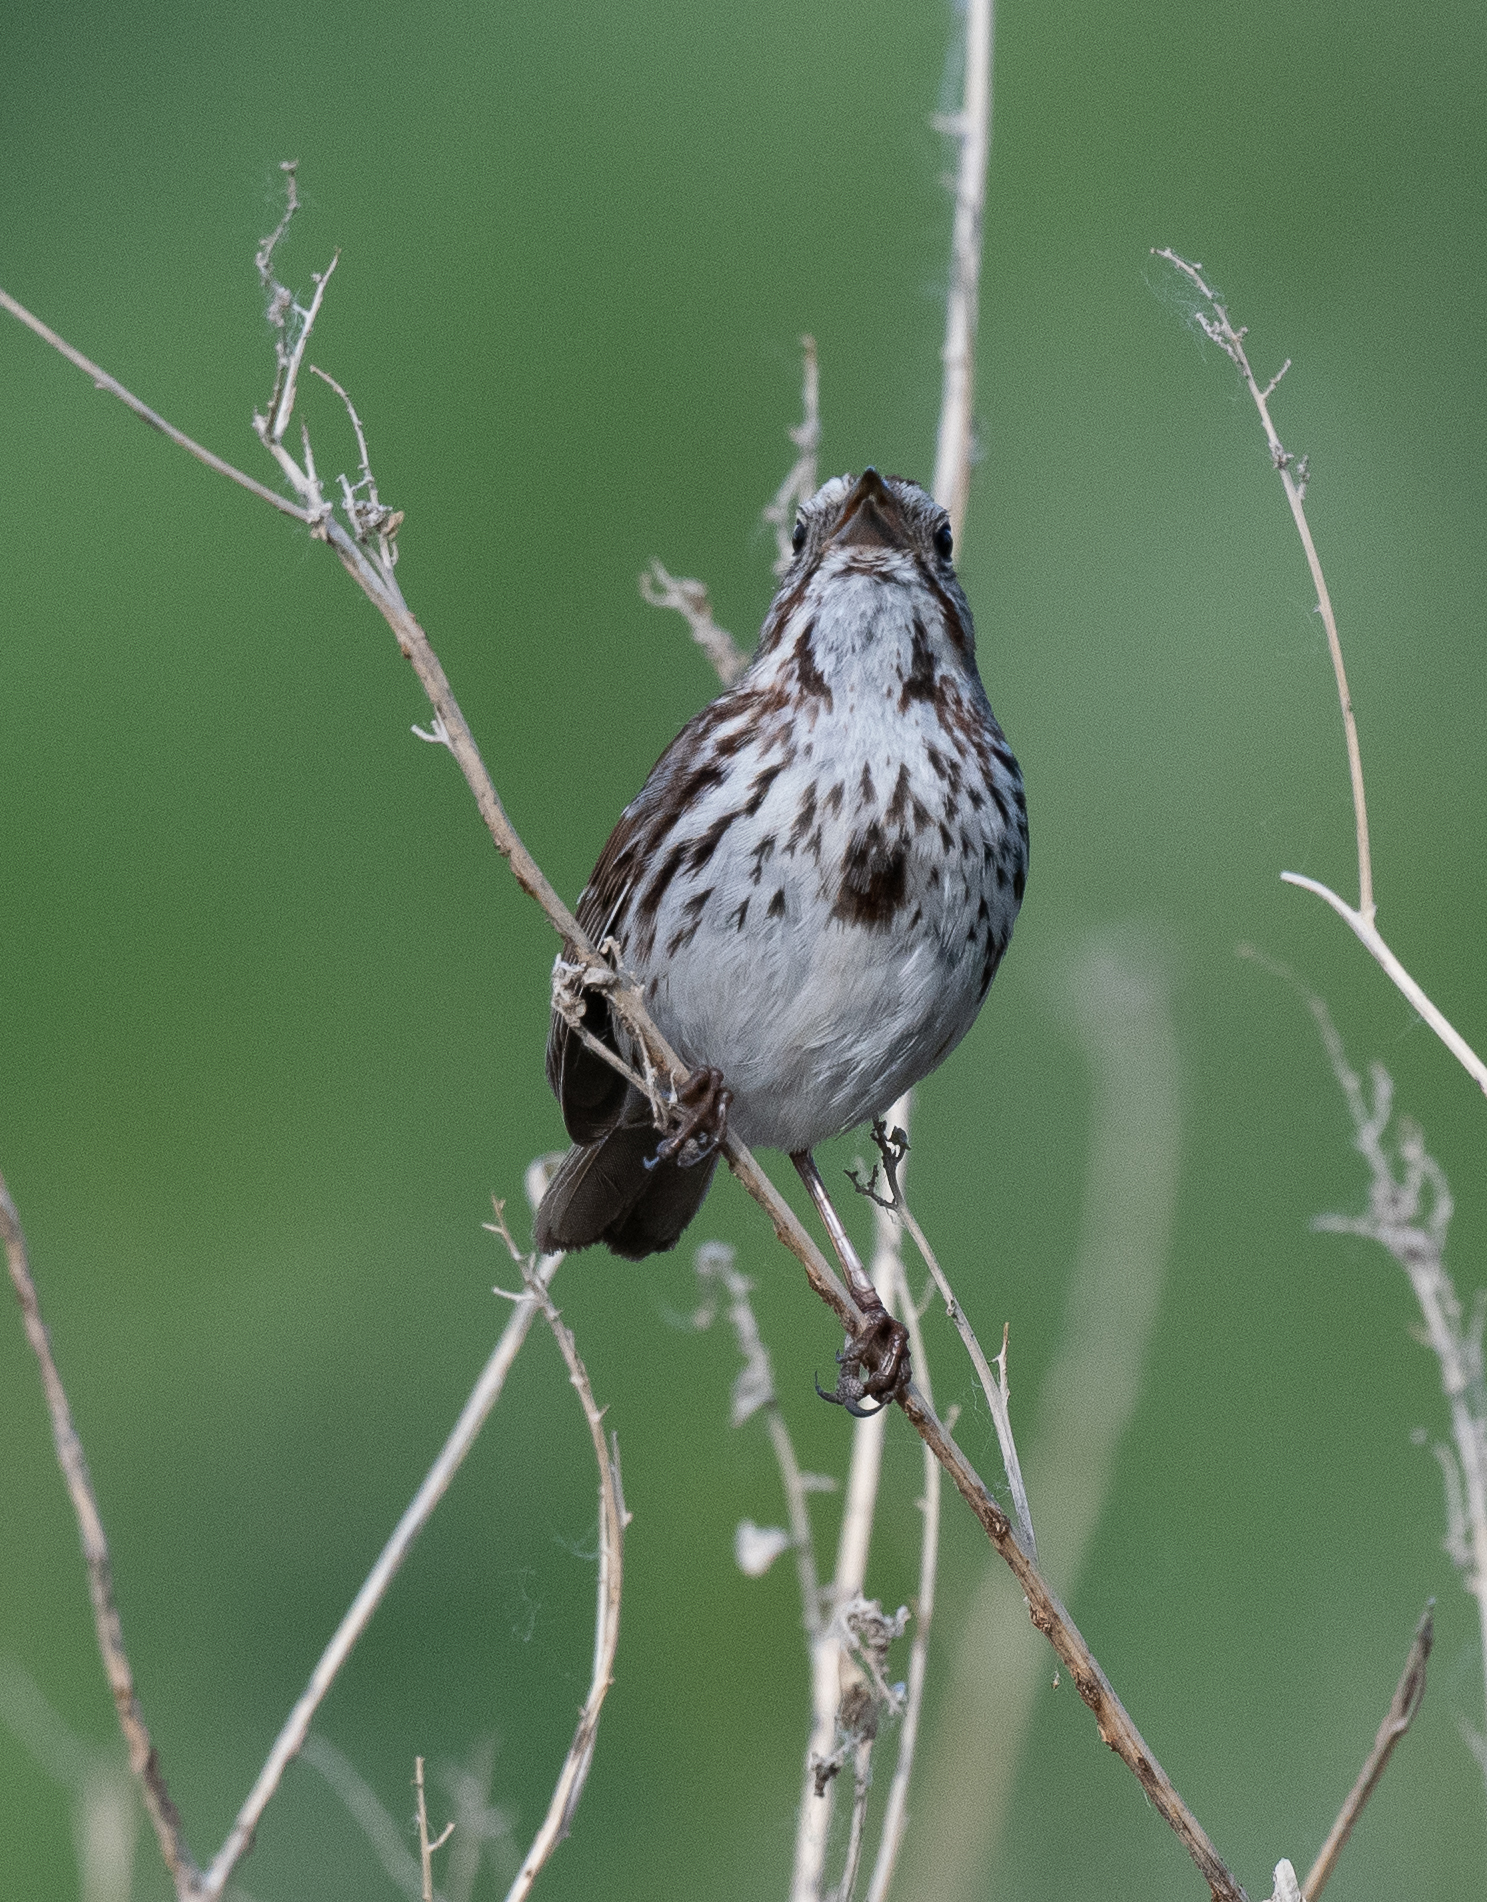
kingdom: Animalia
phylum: Chordata
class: Aves
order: Passeriformes
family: Passerellidae
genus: Melospiza
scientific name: Melospiza melodia
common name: Song sparrow
